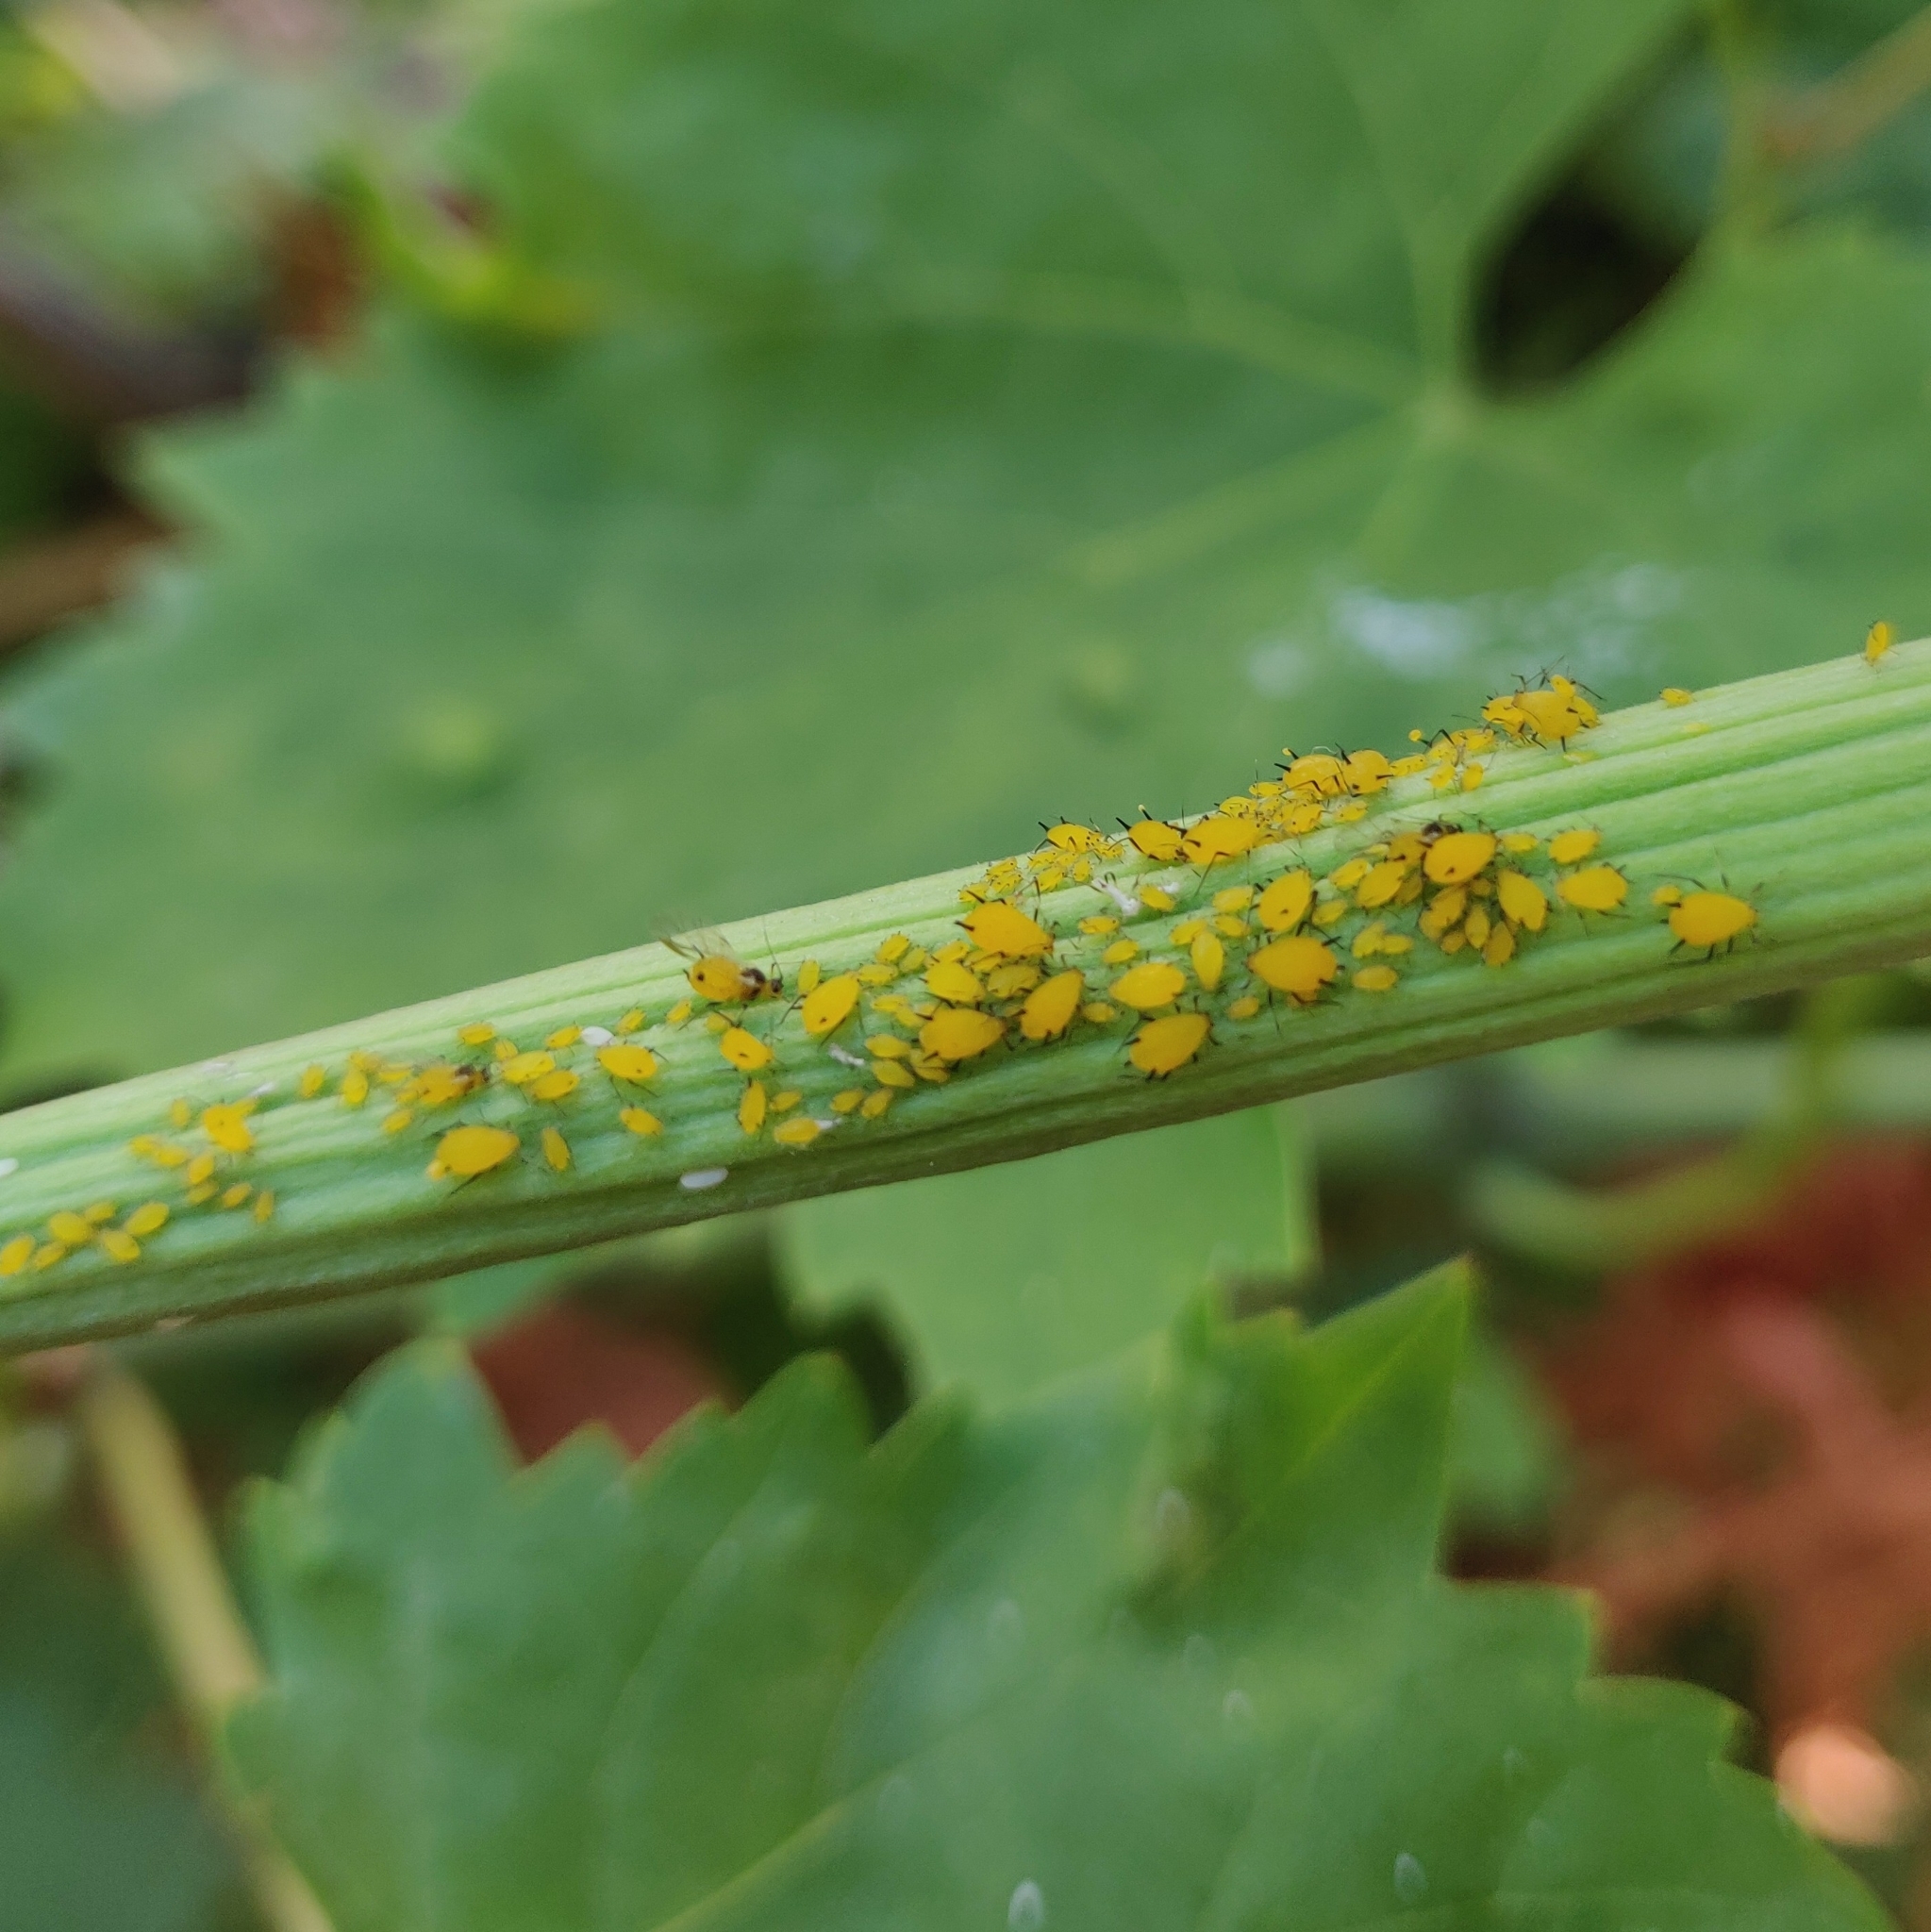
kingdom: Animalia
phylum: Arthropoda
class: Insecta
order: Hemiptera
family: Aphididae
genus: Aphis
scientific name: Aphis nerii
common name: Oleander aphid
